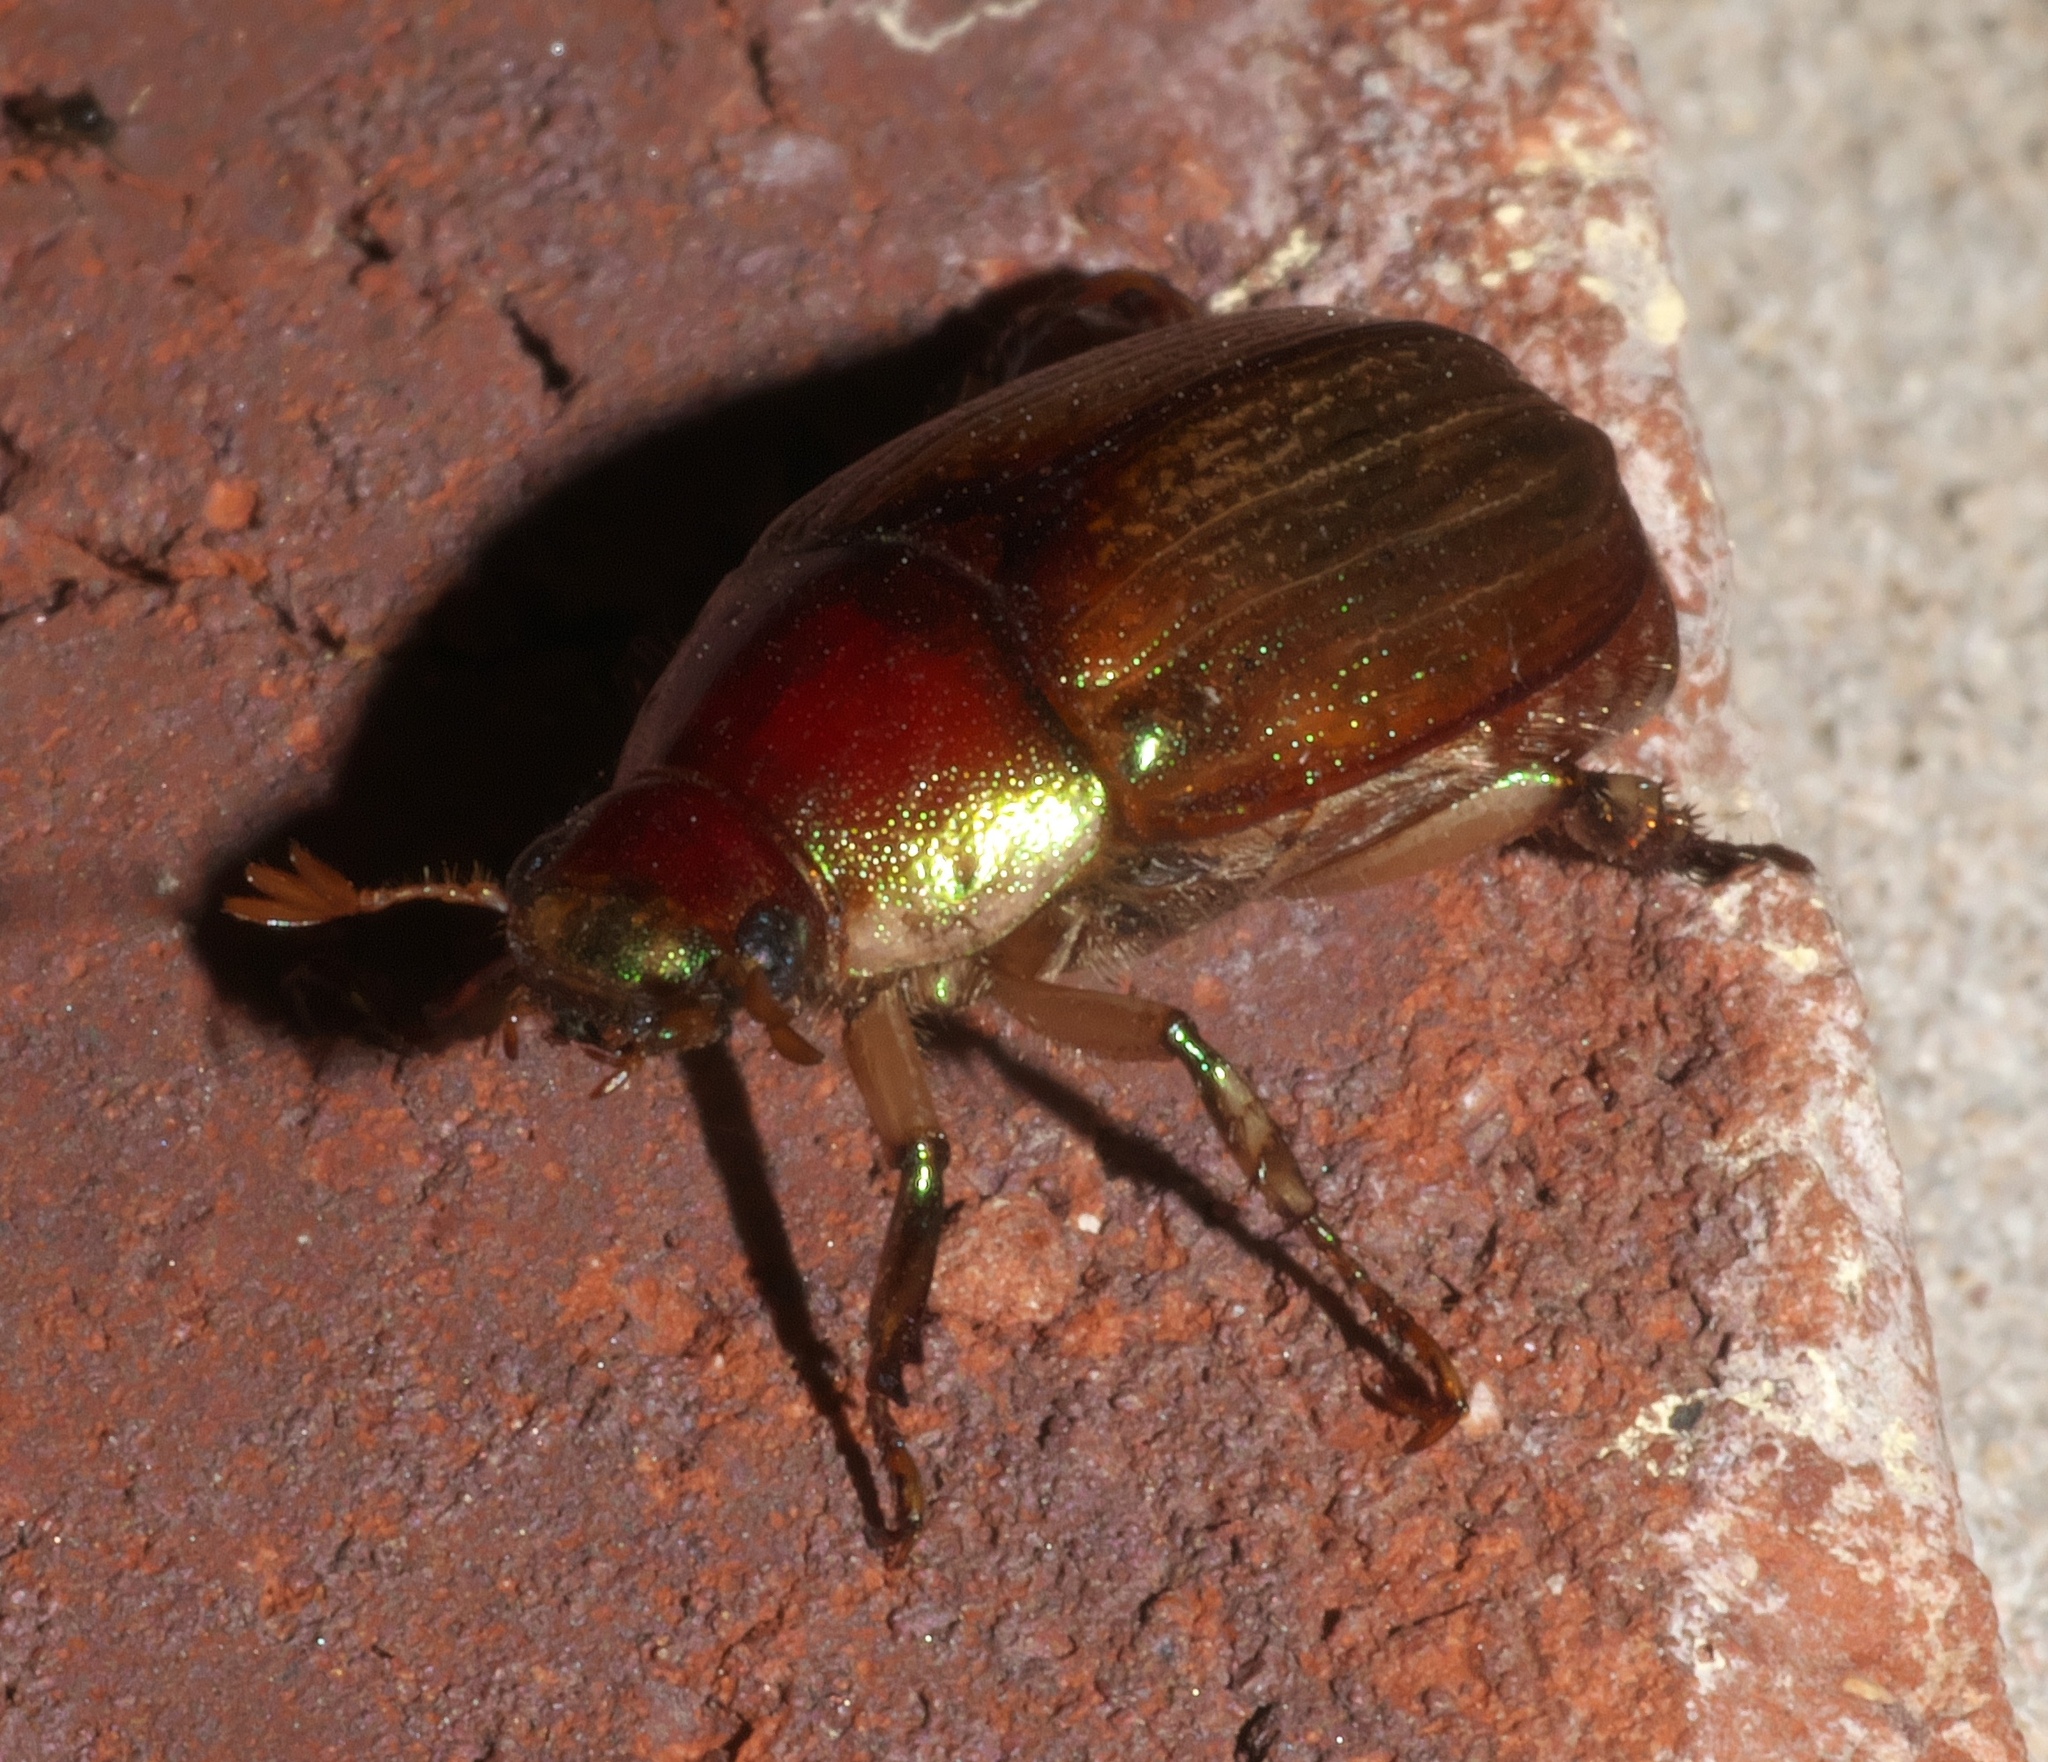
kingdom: Animalia
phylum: Arthropoda
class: Insecta
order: Coleoptera
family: Scarabaeidae
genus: Callistethus
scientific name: Callistethus marginatus
